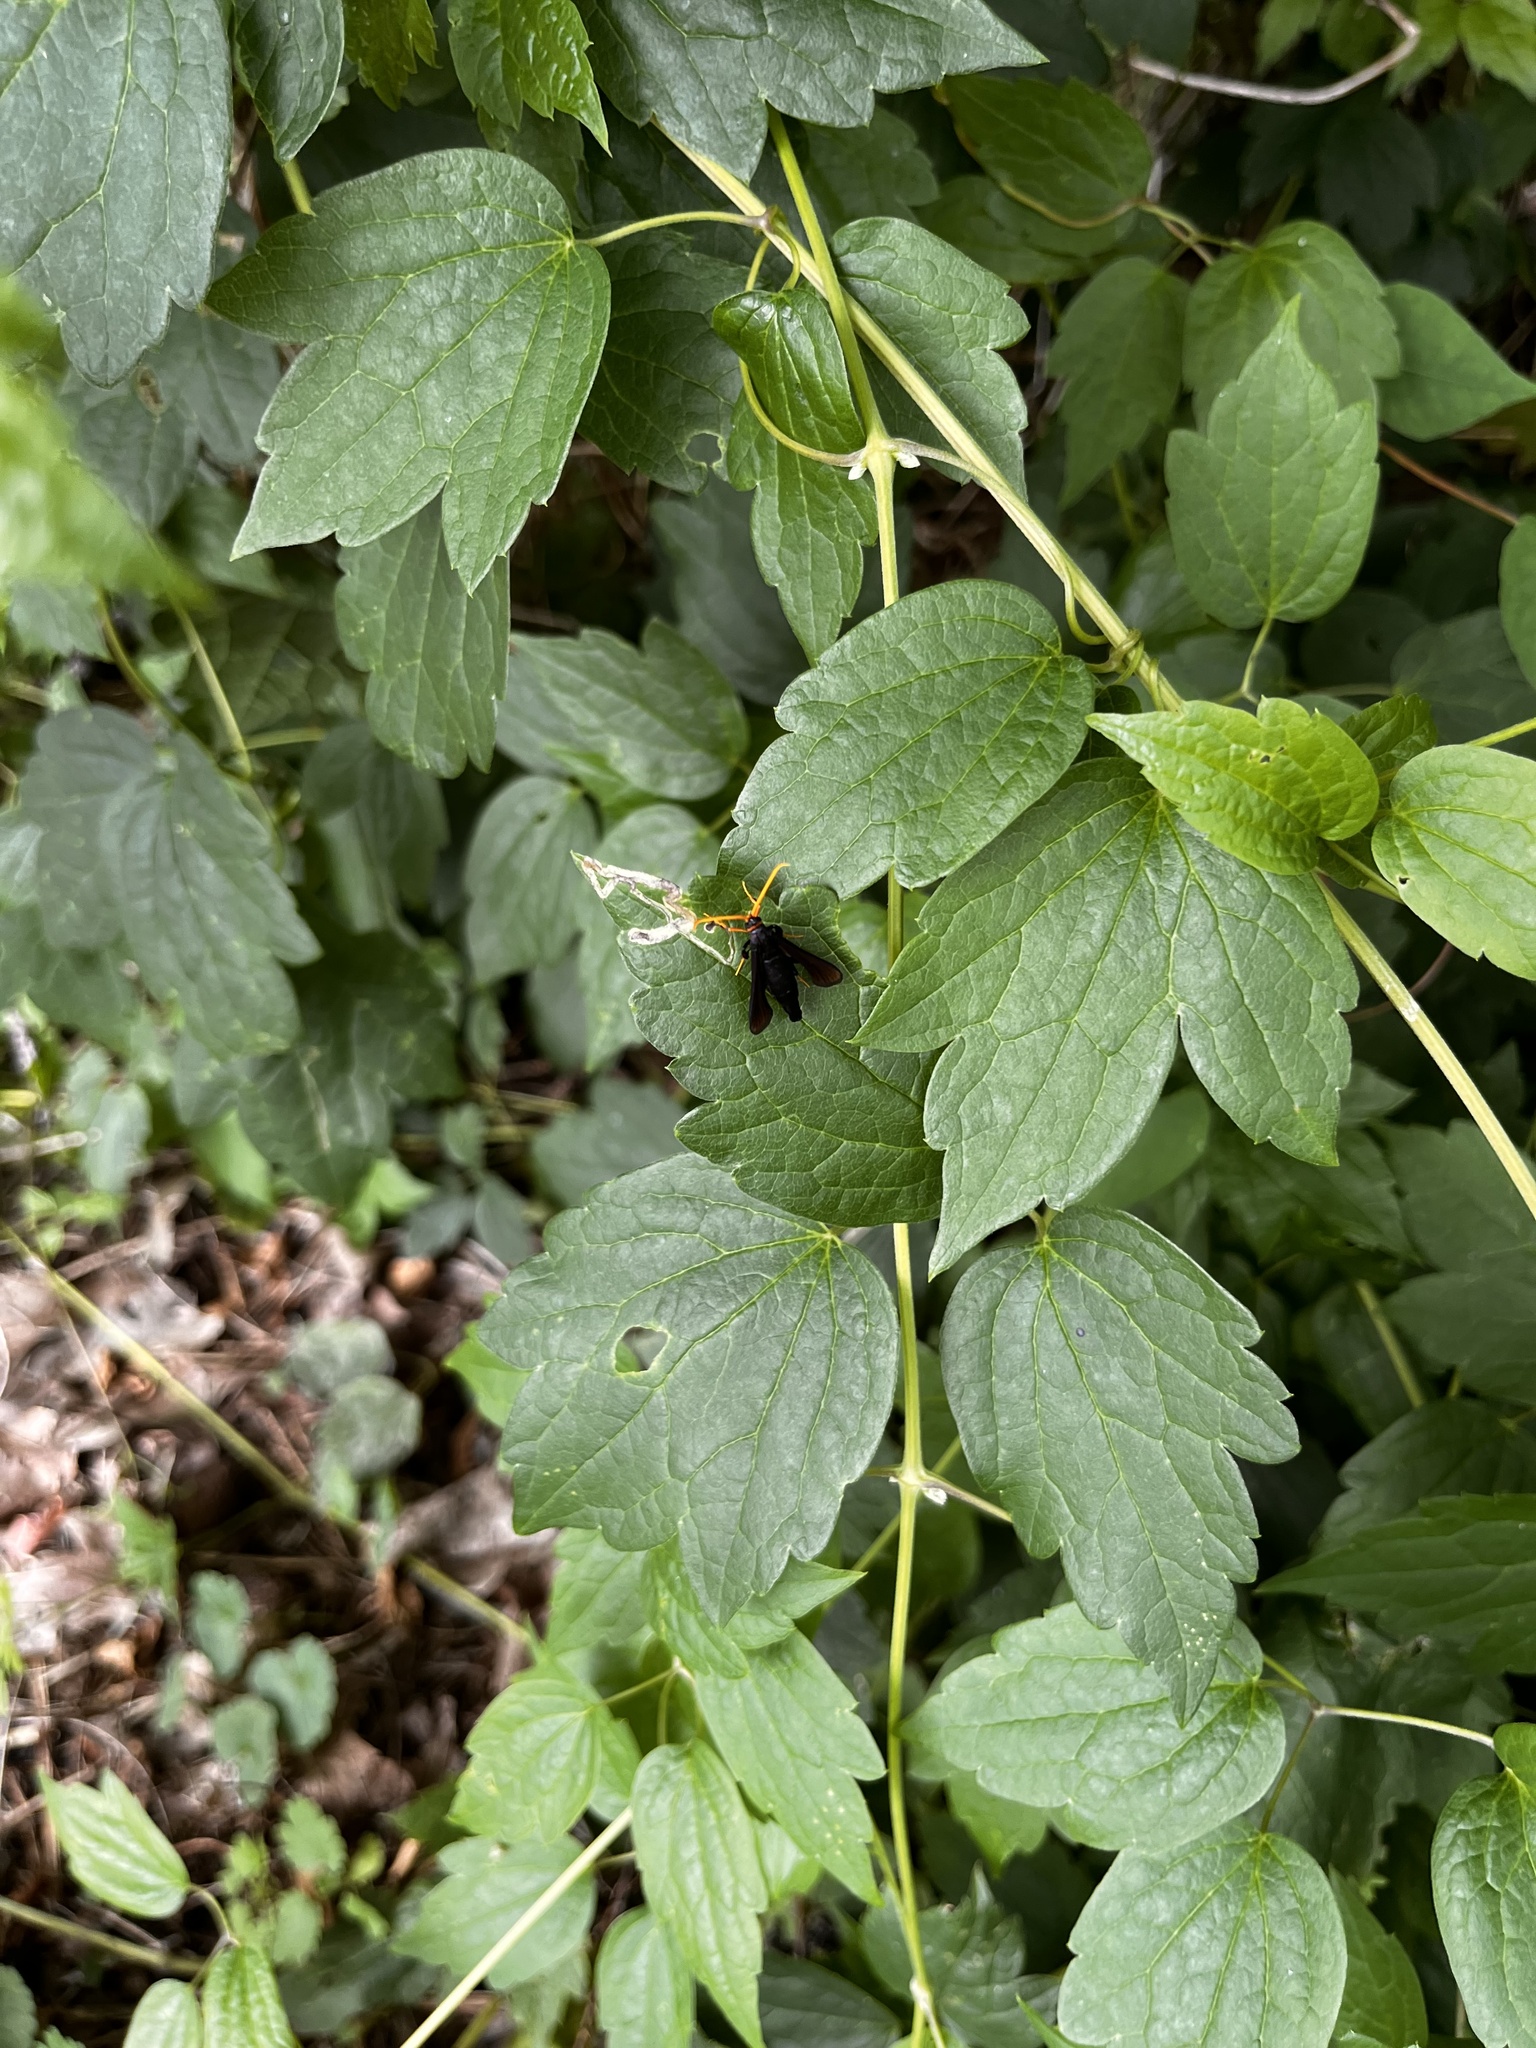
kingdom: Animalia
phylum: Arthropoda
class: Insecta
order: Lepidoptera
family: Sesiidae
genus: Alcathoe
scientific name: Alcathoe caudata
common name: Clematis clearwing moth
